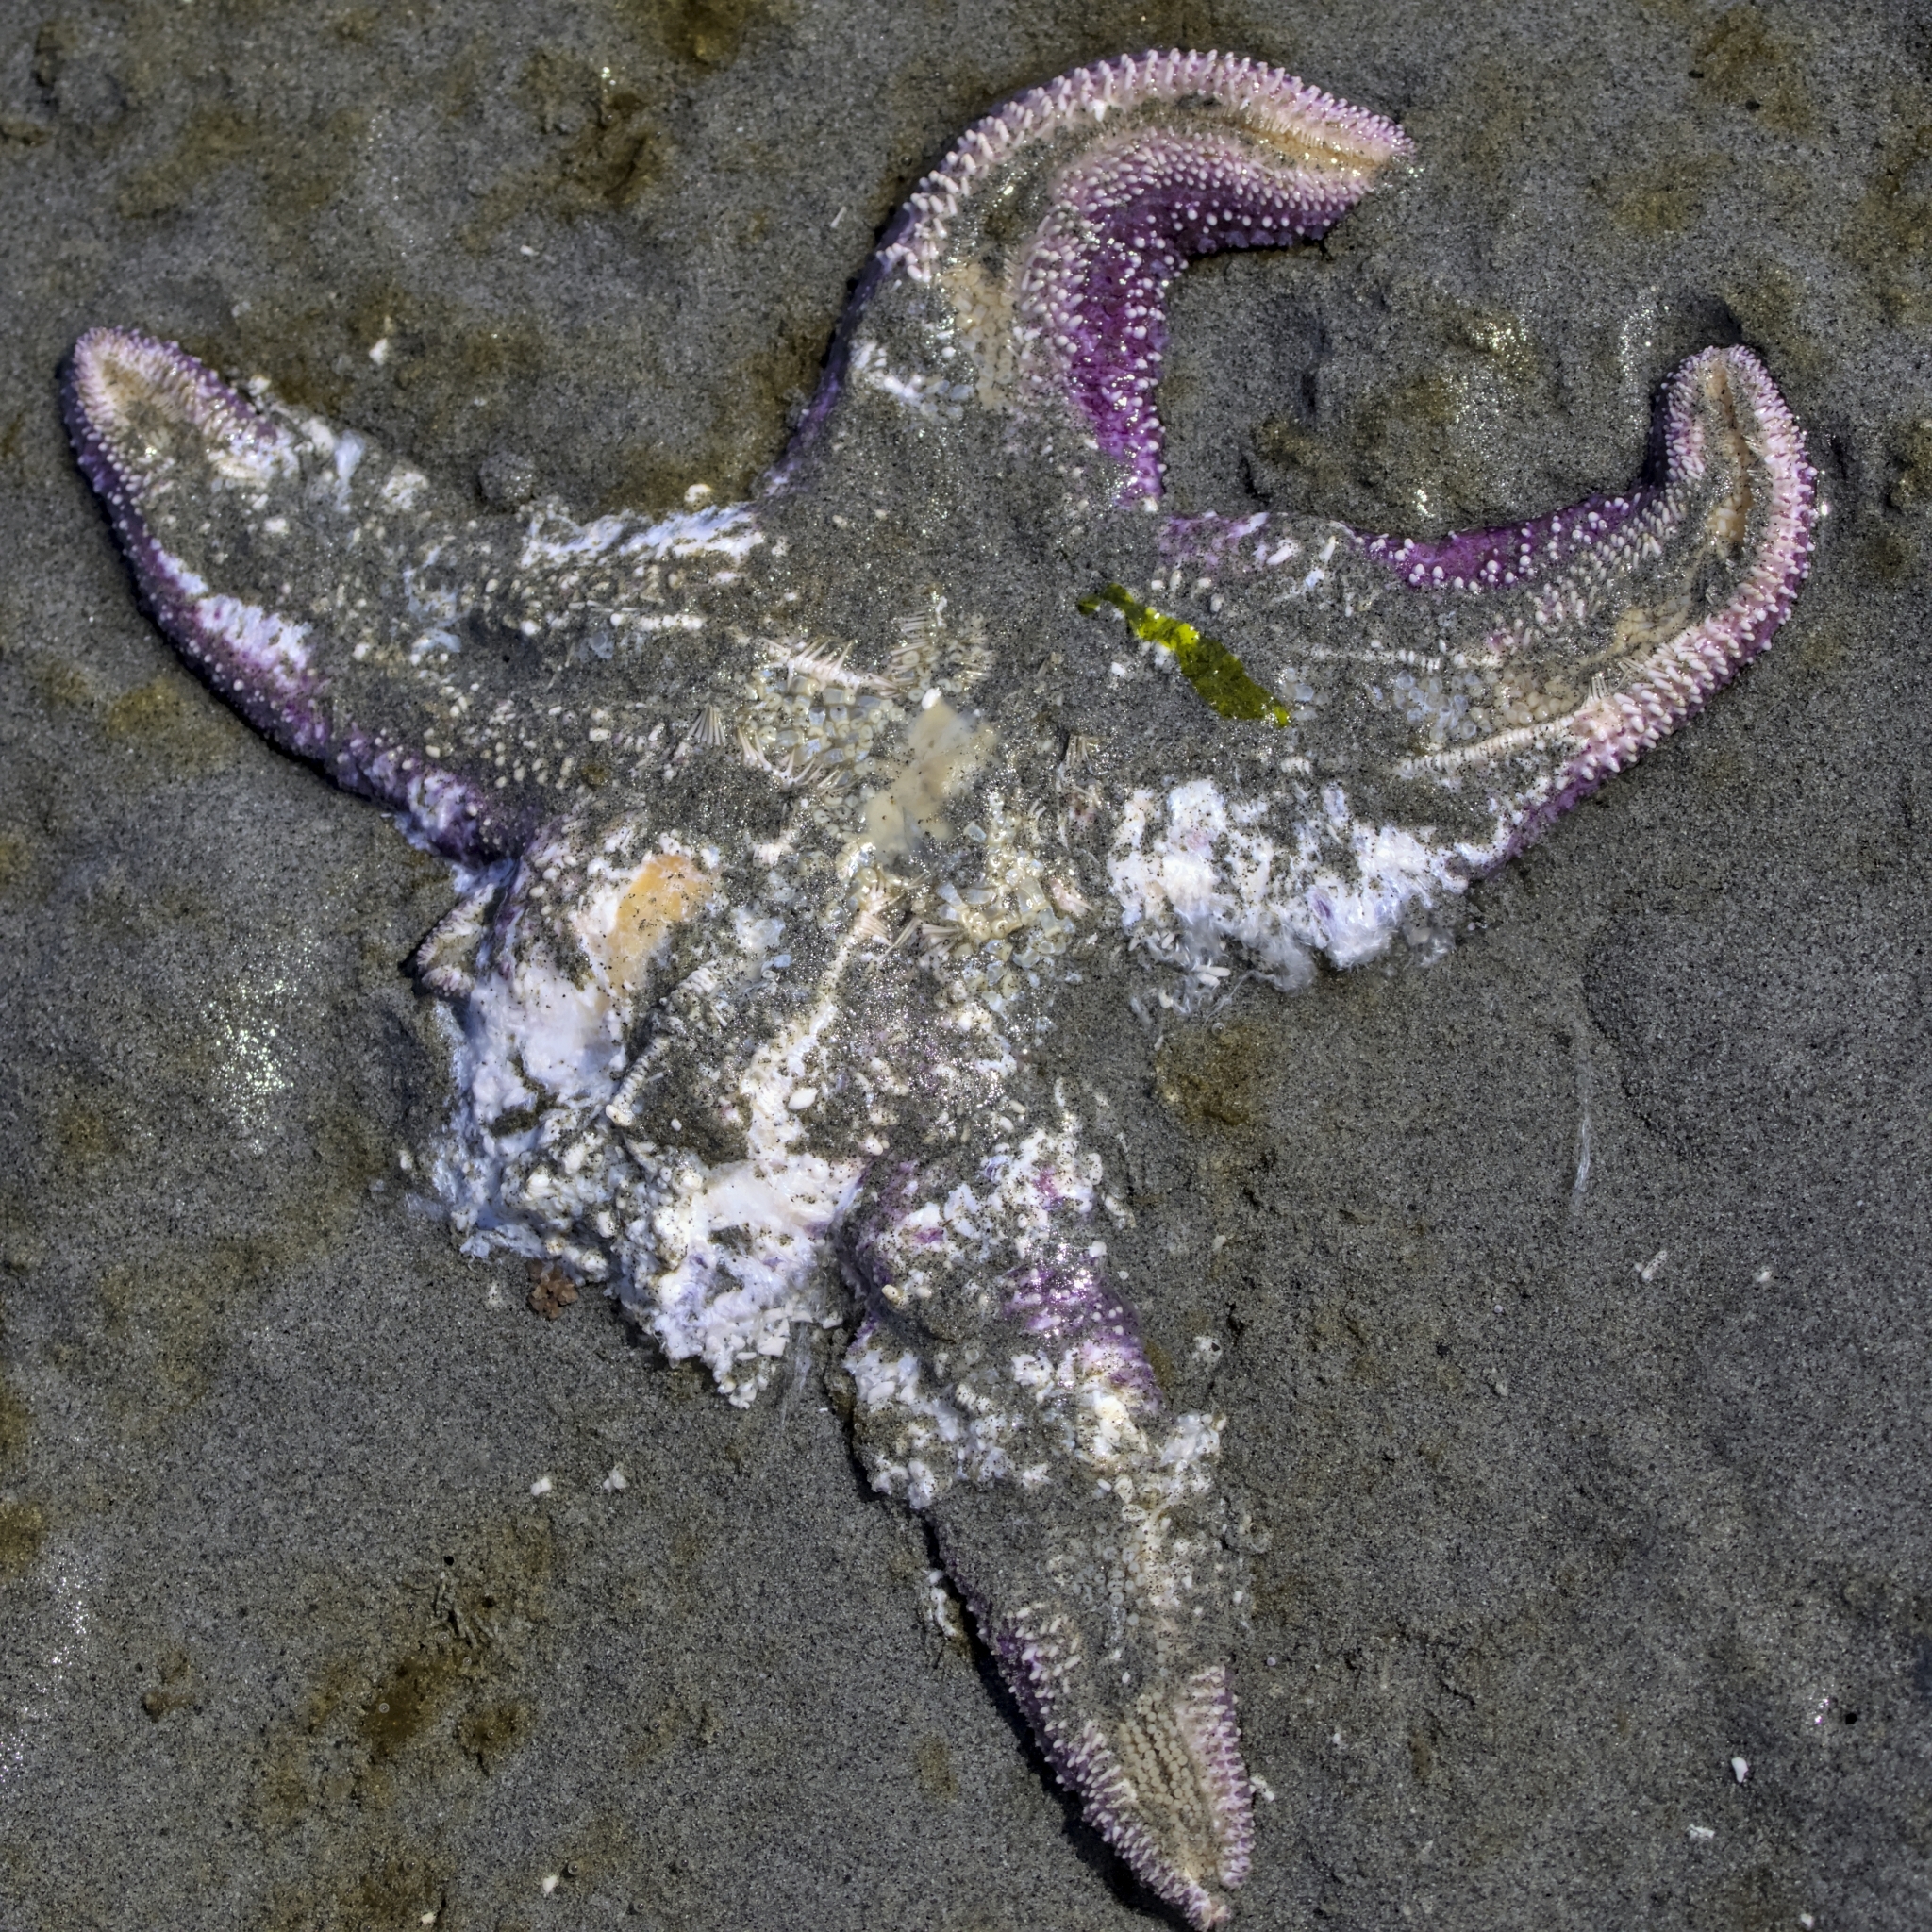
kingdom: Animalia
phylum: Echinodermata
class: Asteroidea
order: Forcipulatida
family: Asteriidae
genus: Pisaster
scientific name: Pisaster ochraceus
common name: Ochre stars
